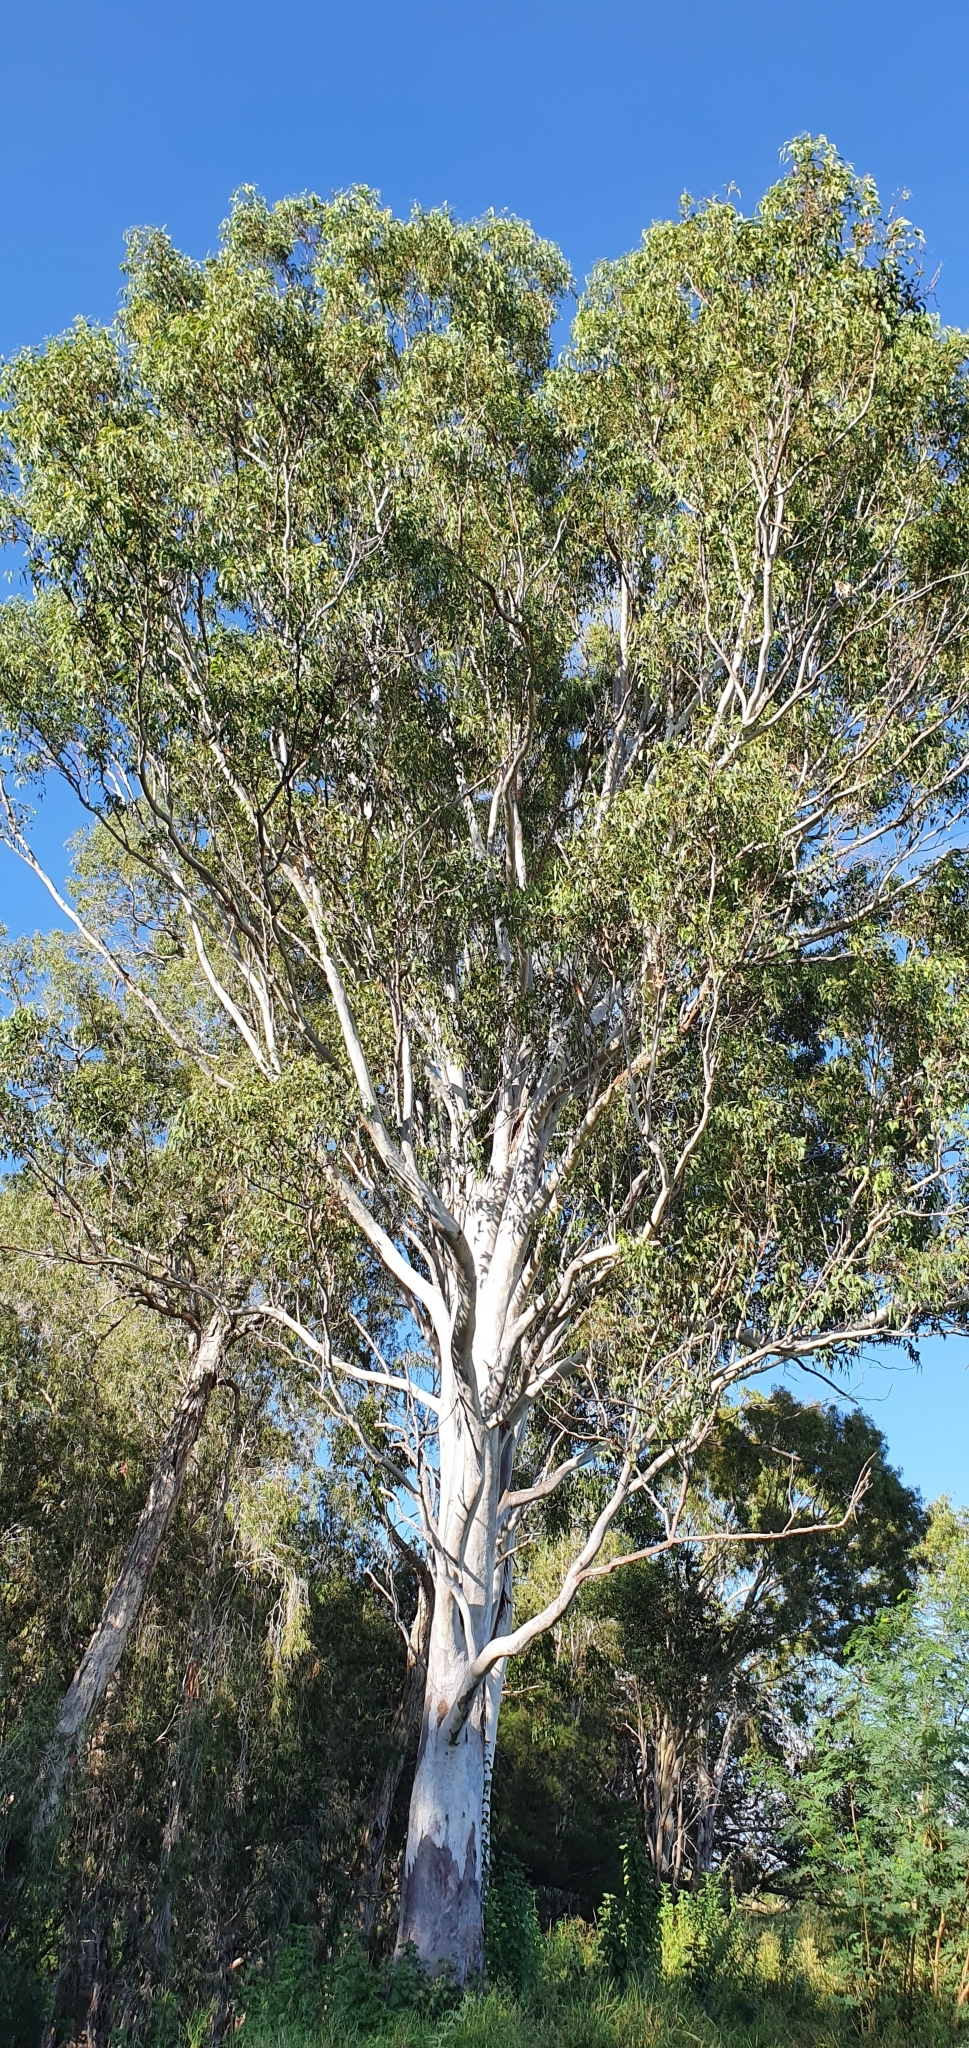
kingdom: Plantae
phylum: Tracheophyta
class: Magnoliopsida
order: Myrtales
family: Myrtaceae
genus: Eucalyptus
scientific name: Eucalyptus tereticornis
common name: Forest redgum
